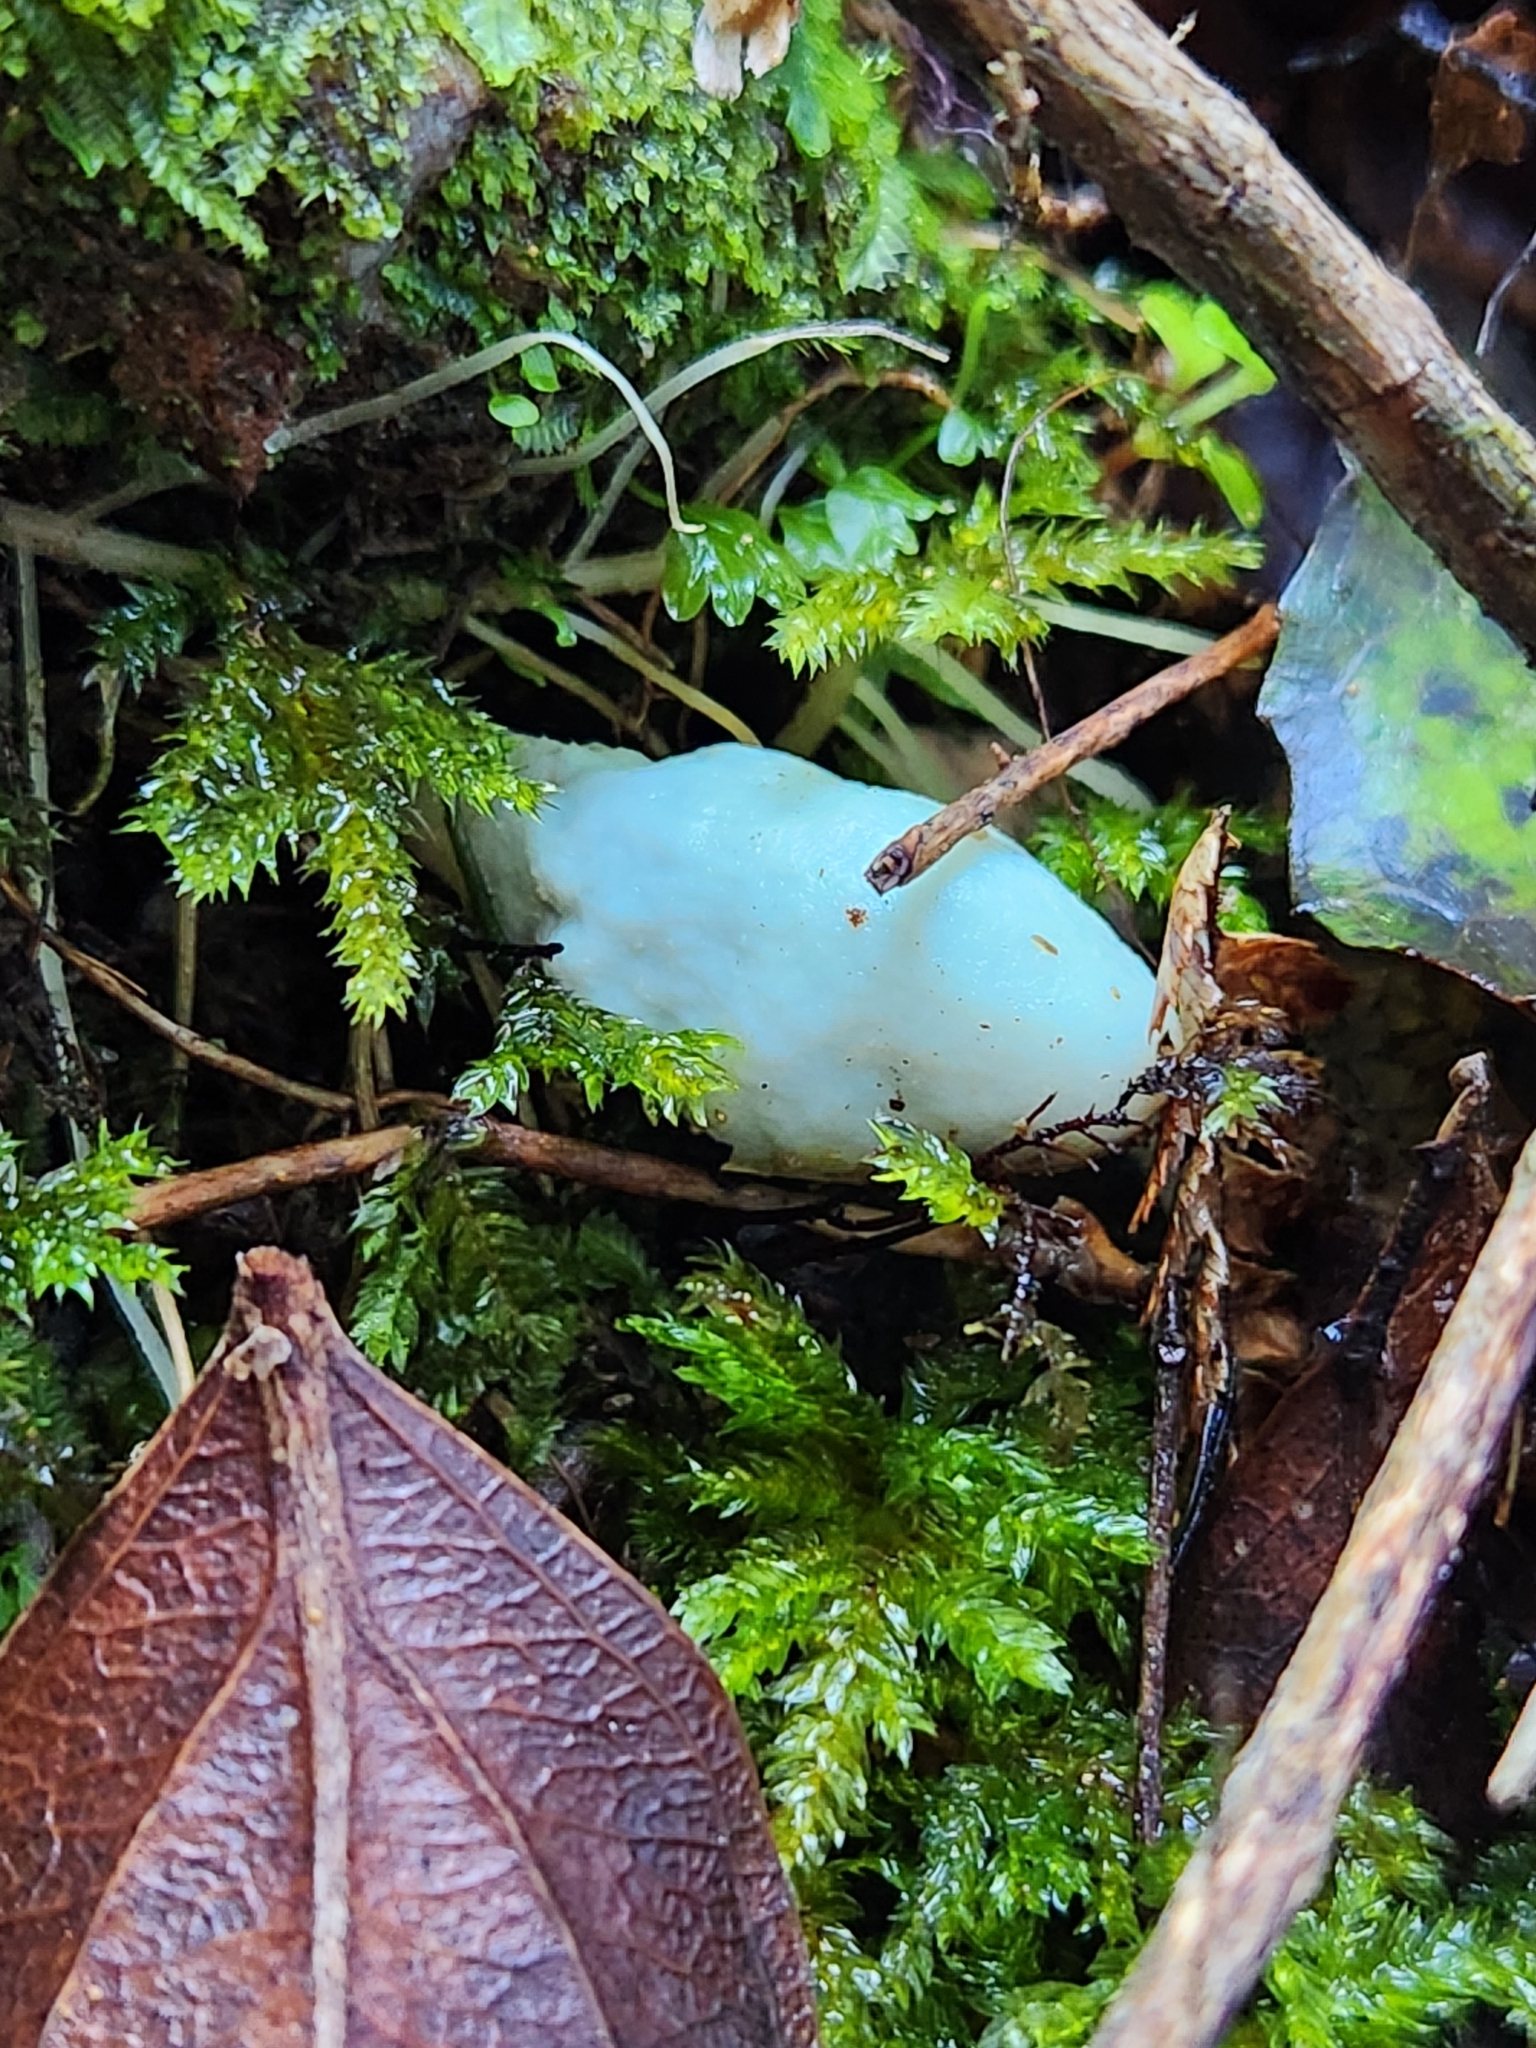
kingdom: Fungi
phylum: Basidiomycota
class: Agaricomycetes
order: Agaricales
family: Agaricaceae
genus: Clavogaster
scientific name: Clavogaster virescens
